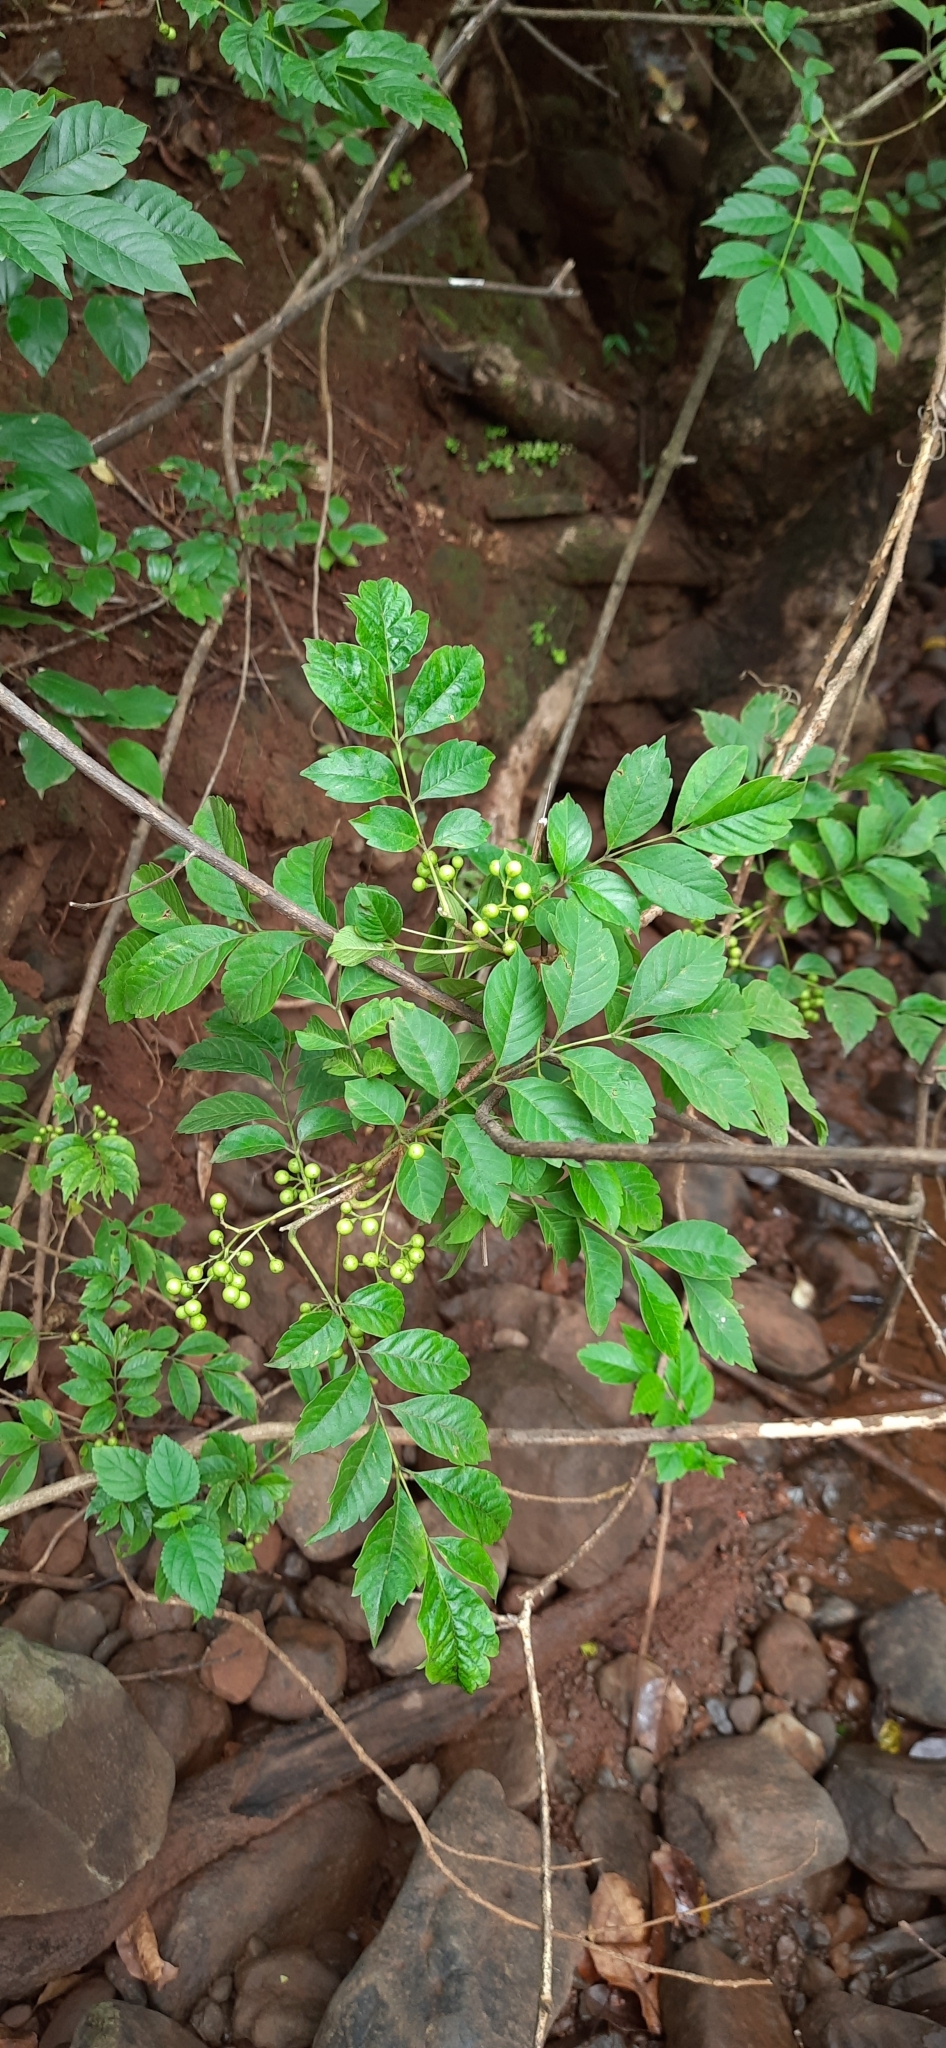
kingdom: Plantae
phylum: Tracheophyta
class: Magnoliopsida
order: Sapindales
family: Meliaceae
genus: Cipadessa
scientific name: Cipadessa baccifera
